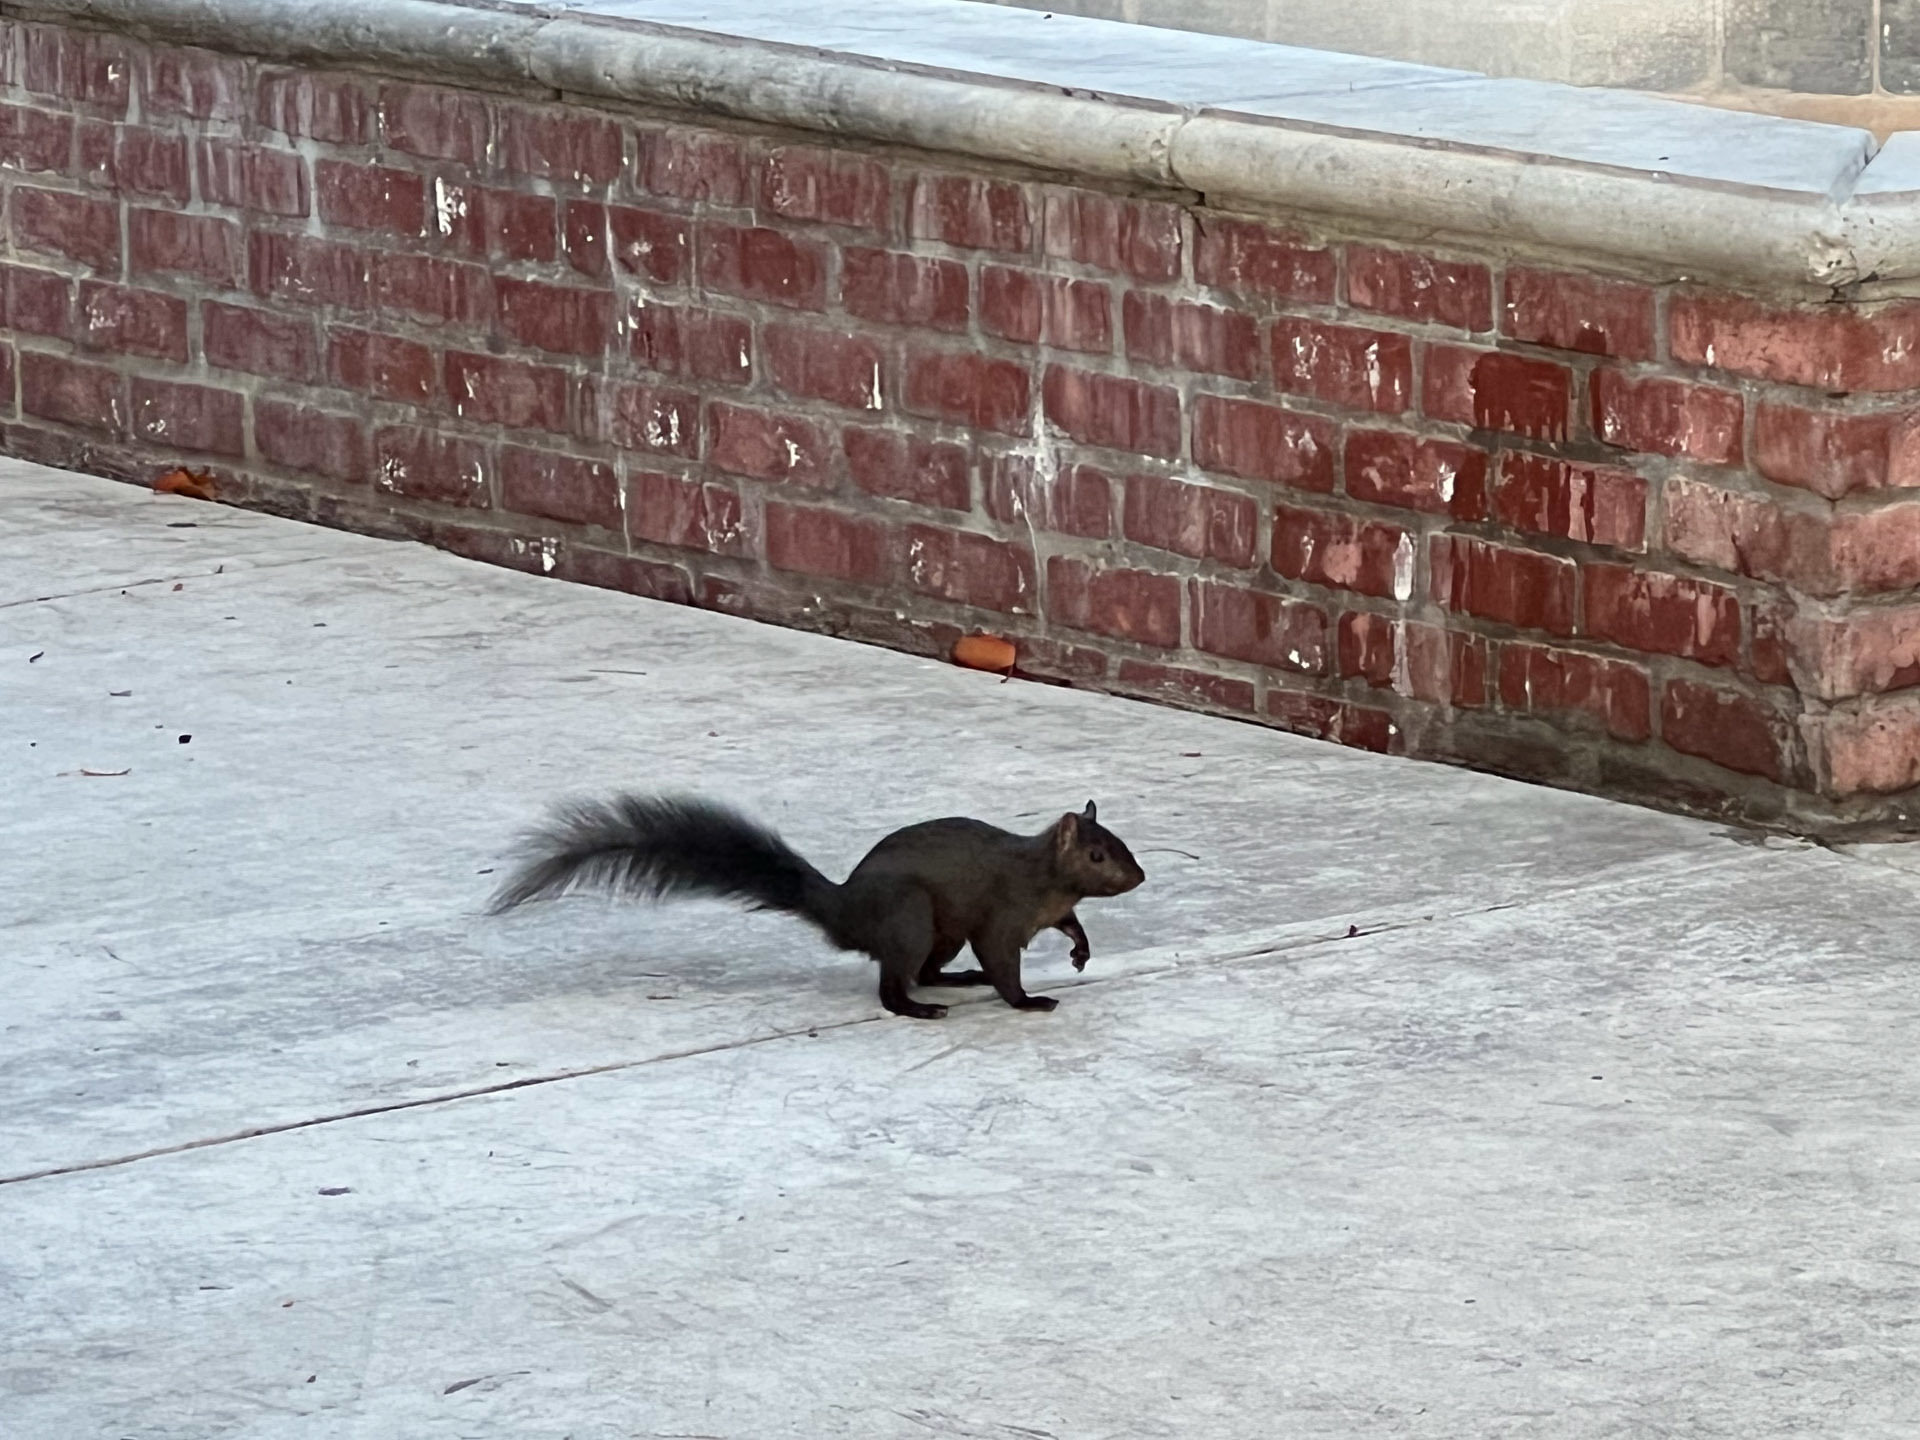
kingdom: Animalia
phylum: Chordata
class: Mammalia
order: Rodentia
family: Sciuridae
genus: Sciurus
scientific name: Sciurus carolinensis
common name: Eastern gray squirrel
